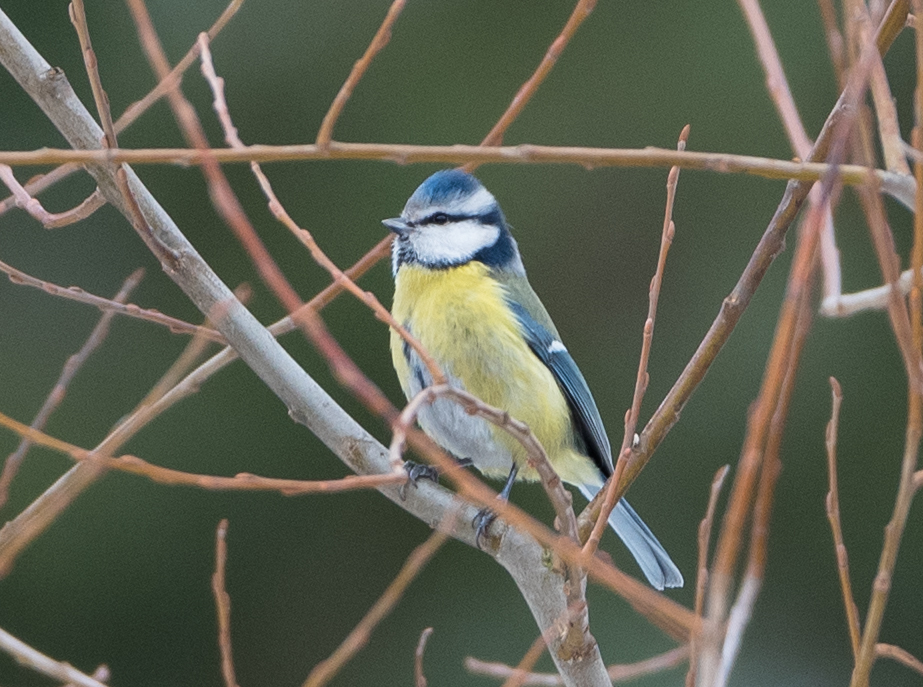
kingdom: Animalia
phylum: Chordata
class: Aves
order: Passeriformes
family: Paridae
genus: Cyanistes
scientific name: Cyanistes caeruleus
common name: Eurasian blue tit
